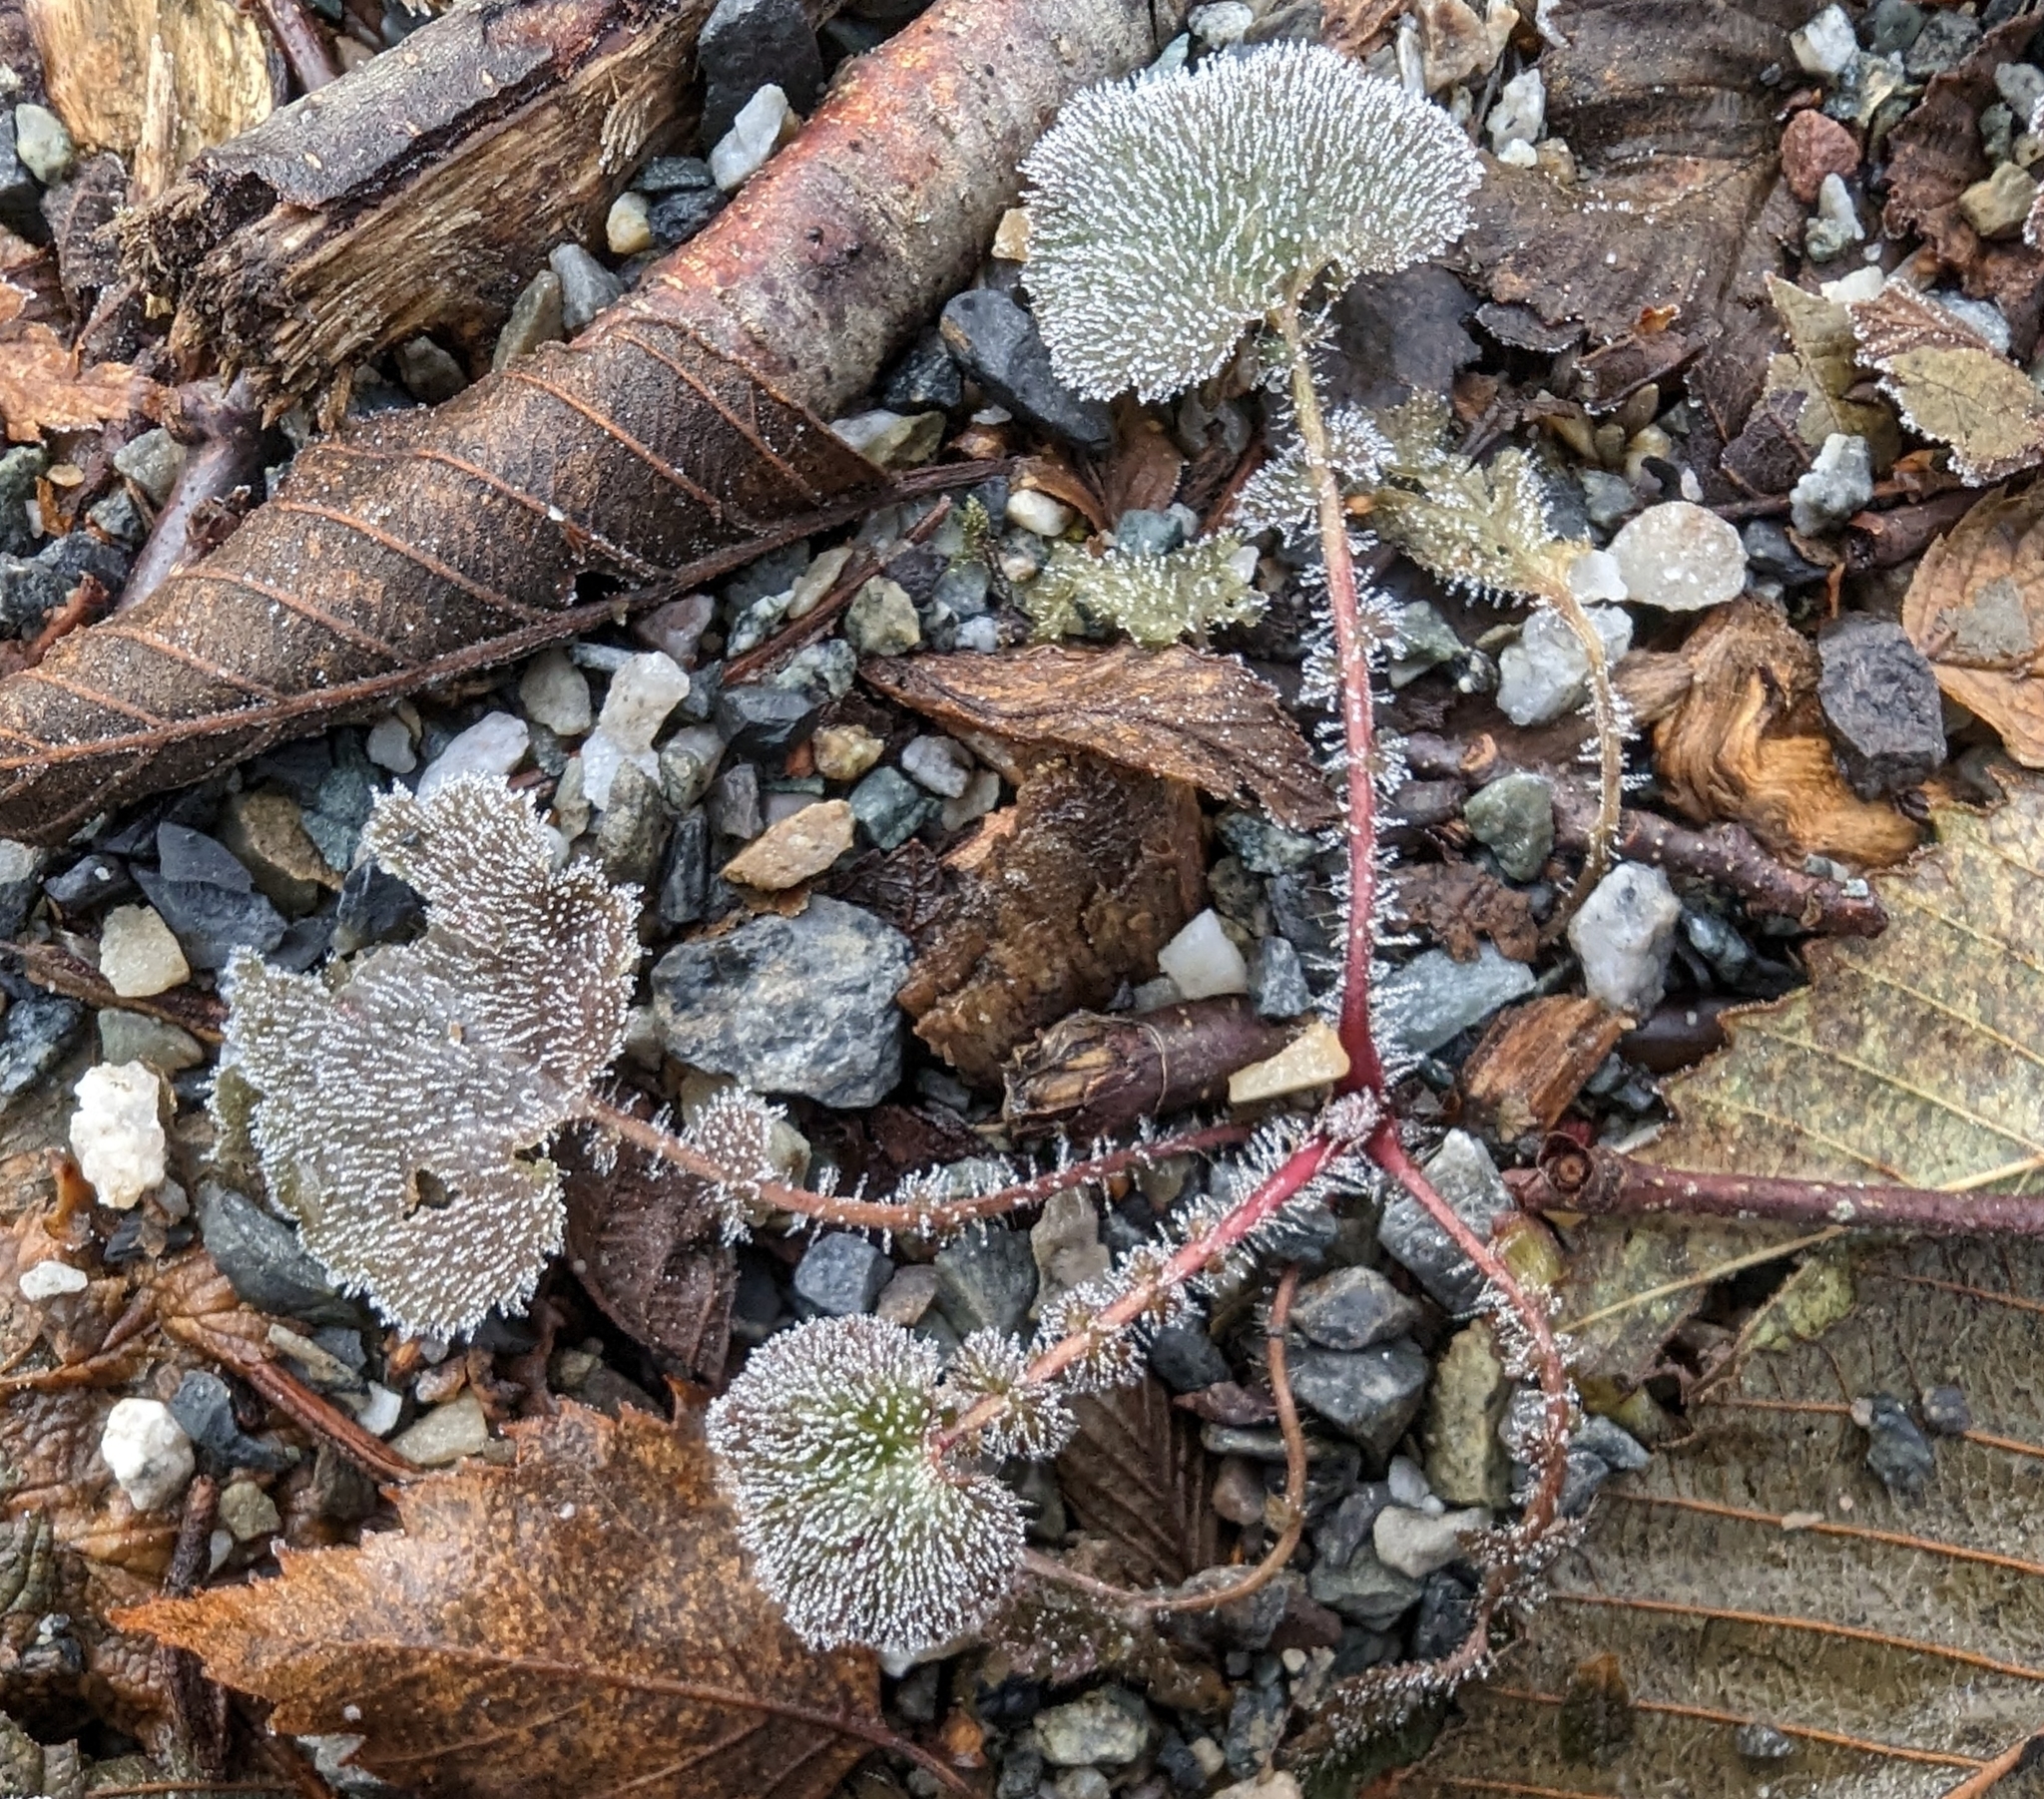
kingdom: Plantae
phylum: Tracheophyta
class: Magnoliopsida
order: Rosales
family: Rosaceae
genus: Geum
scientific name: Geum macrophyllum
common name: Large-leaved avens
